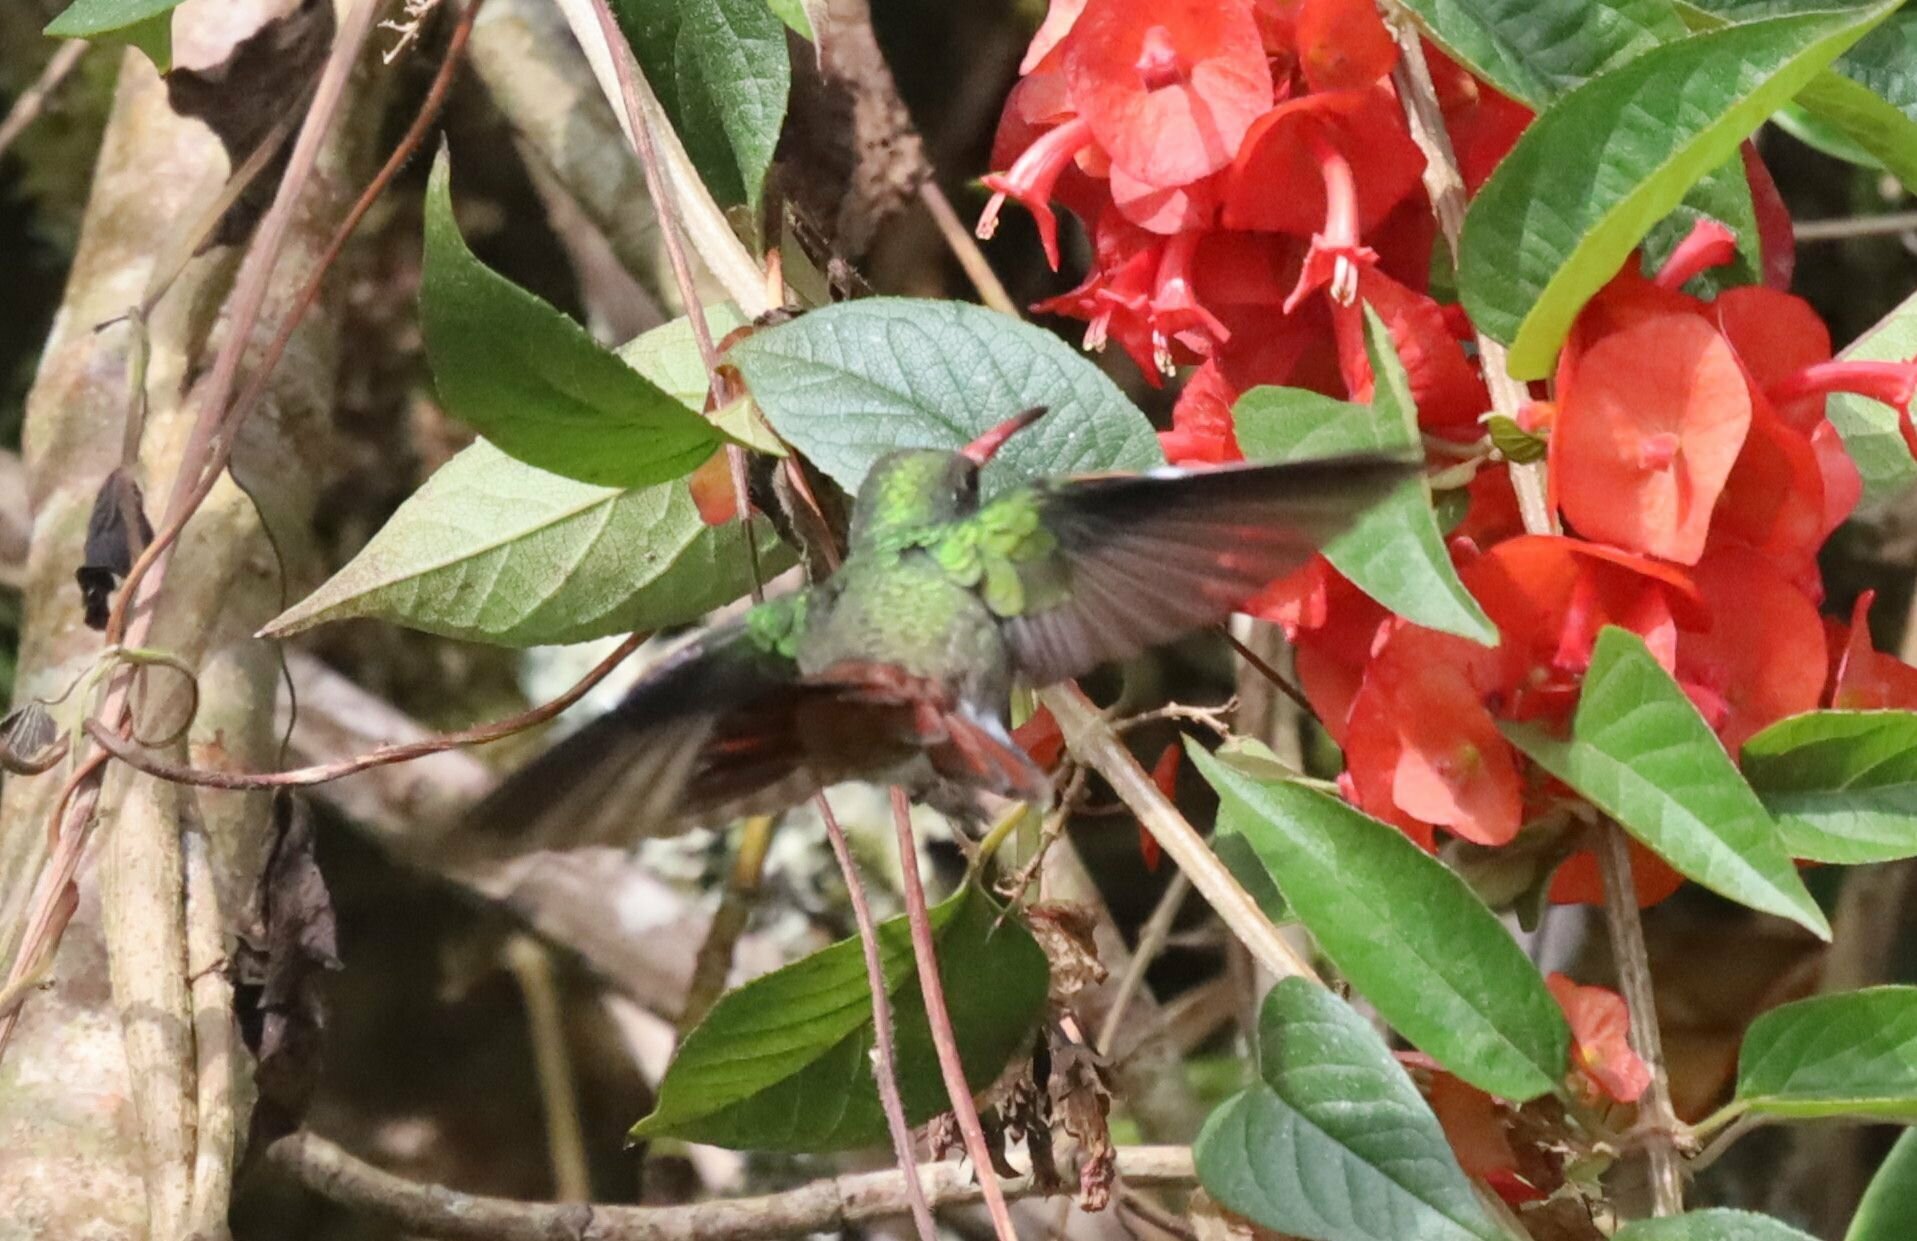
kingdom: Animalia
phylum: Chordata
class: Aves
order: Apodiformes
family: Trochilidae
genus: Amazilia
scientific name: Amazilia tzacatl
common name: Rufous-tailed hummingbird
